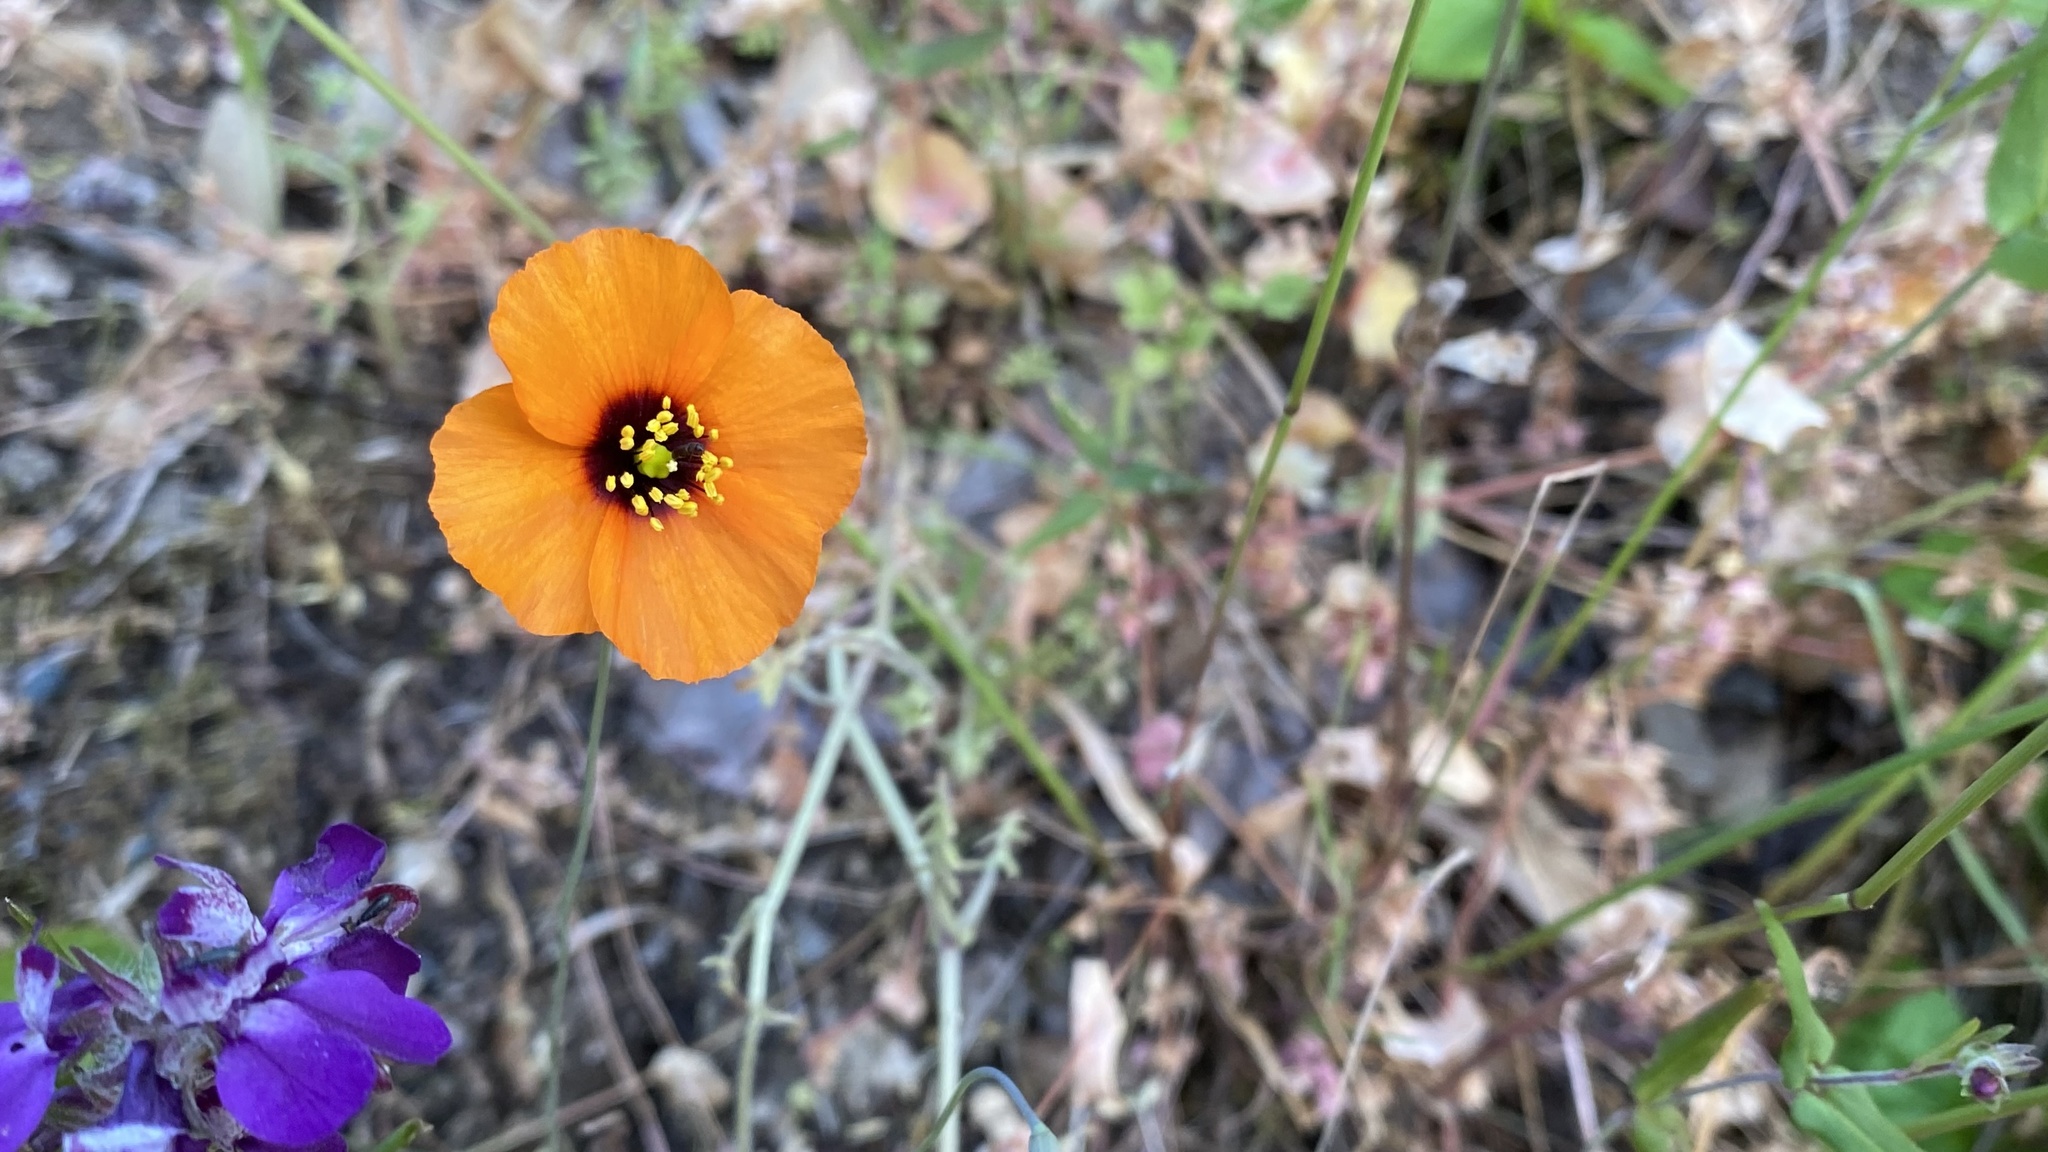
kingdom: Plantae
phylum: Tracheophyta
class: Magnoliopsida
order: Ranunculales
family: Papaveraceae
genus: Stylomecon
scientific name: Stylomecon heterophylla
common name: Flaming-poppy
